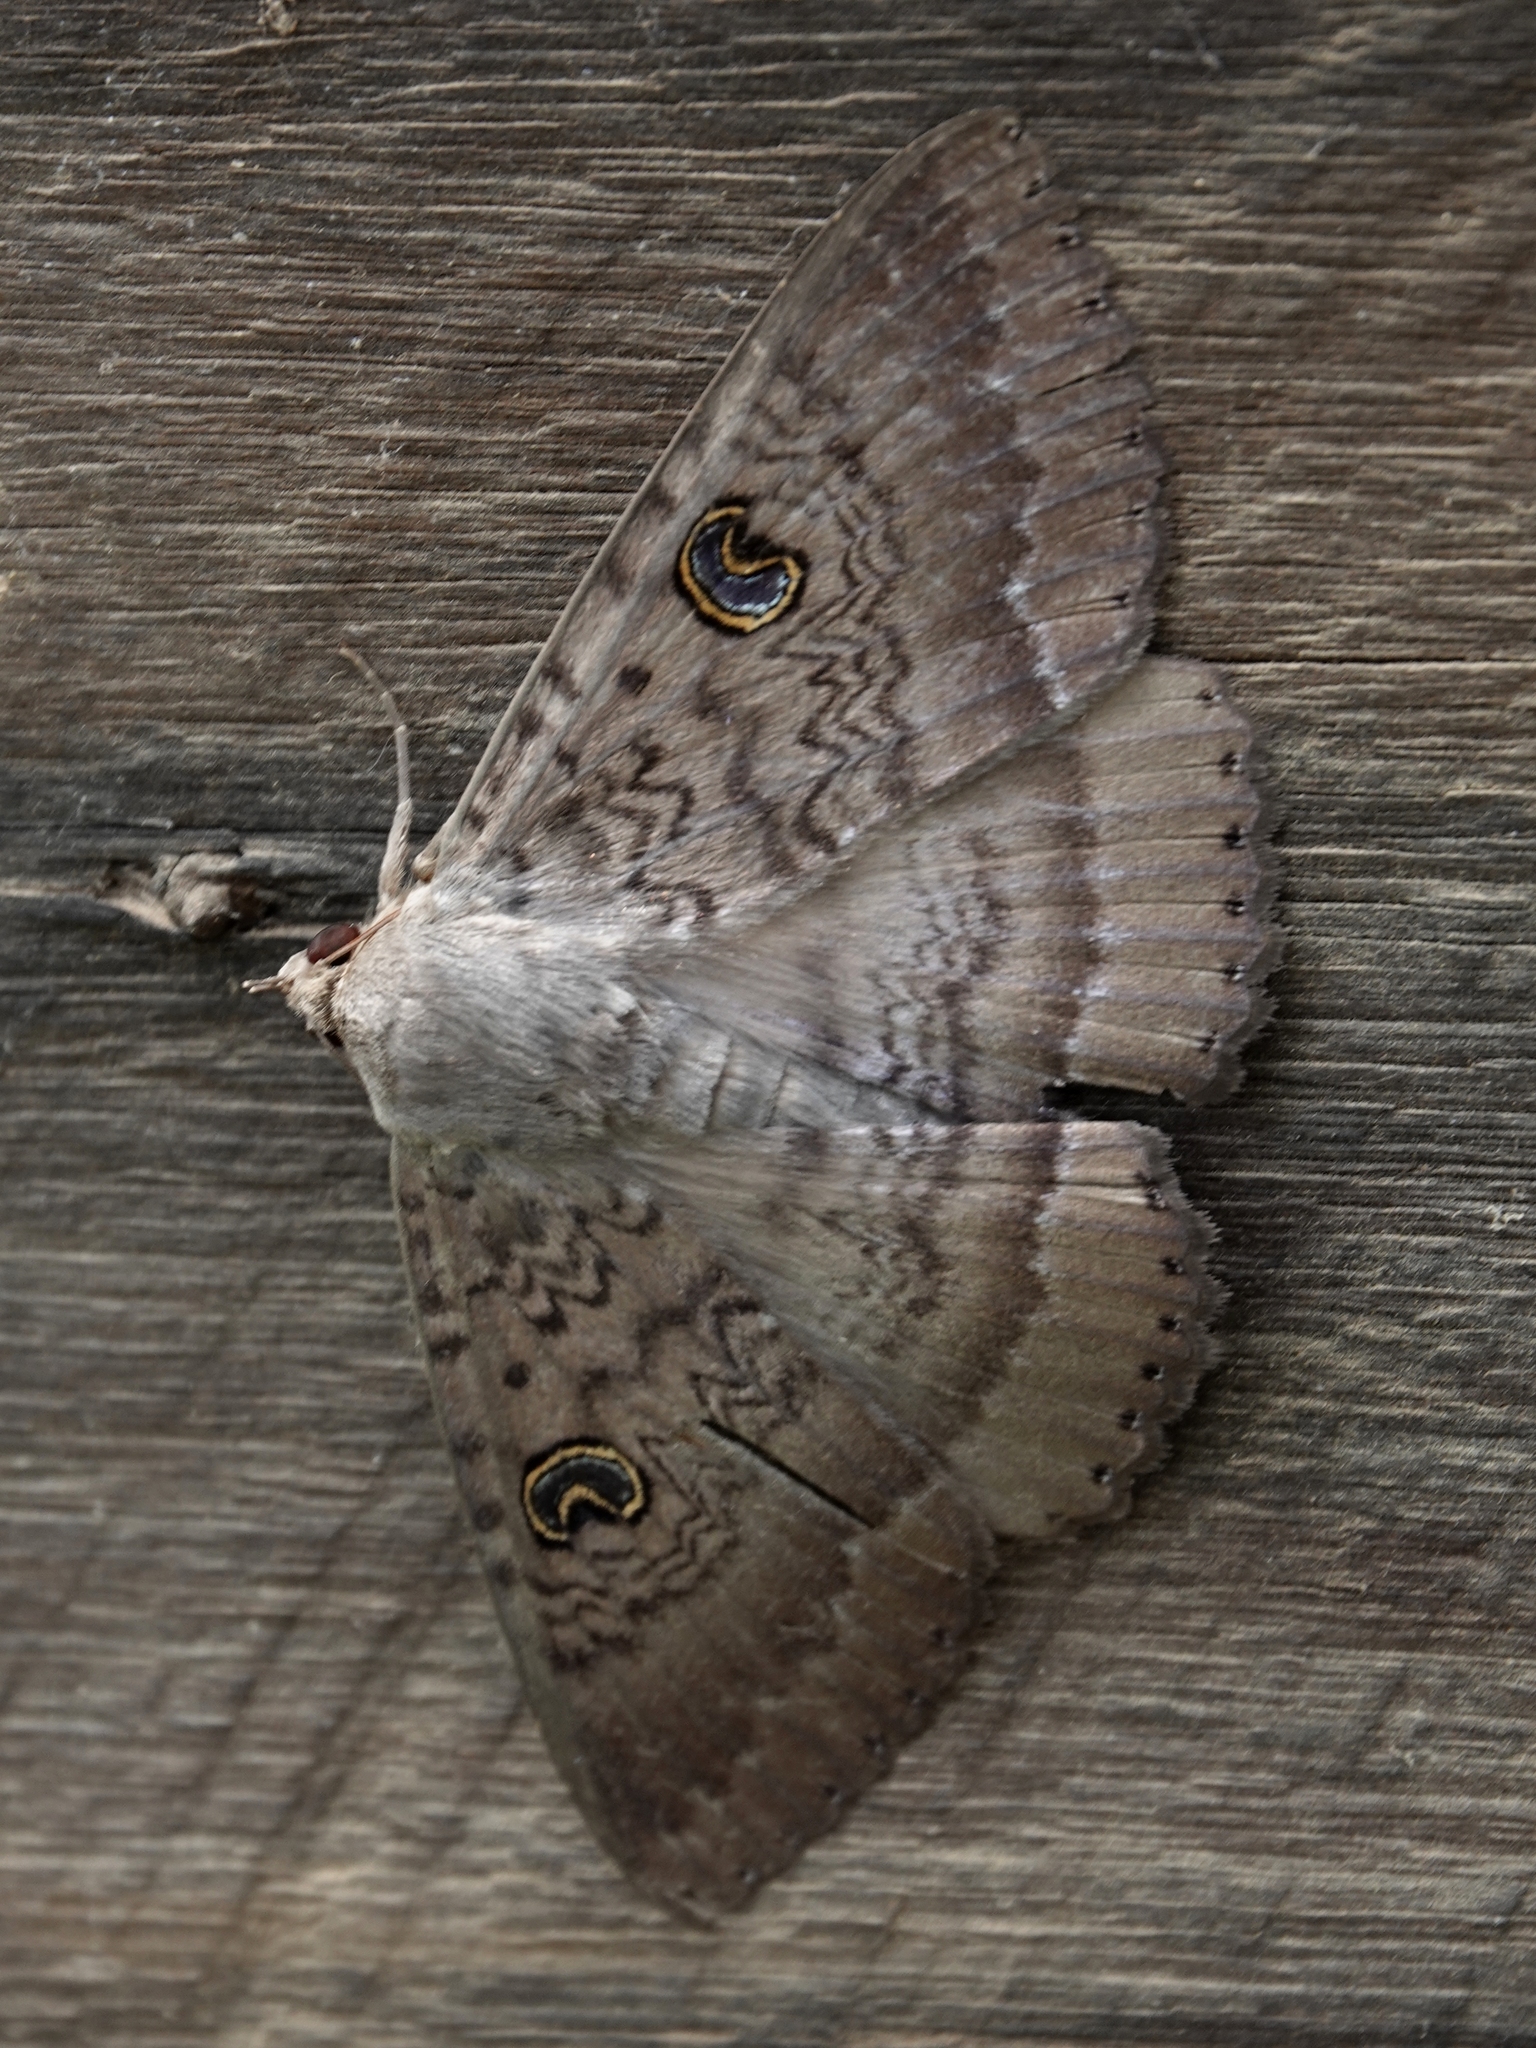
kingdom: Animalia
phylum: Arthropoda
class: Insecta
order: Lepidoptera
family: Erebidae
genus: Dasypodia
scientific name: Dasypodia selenophora
